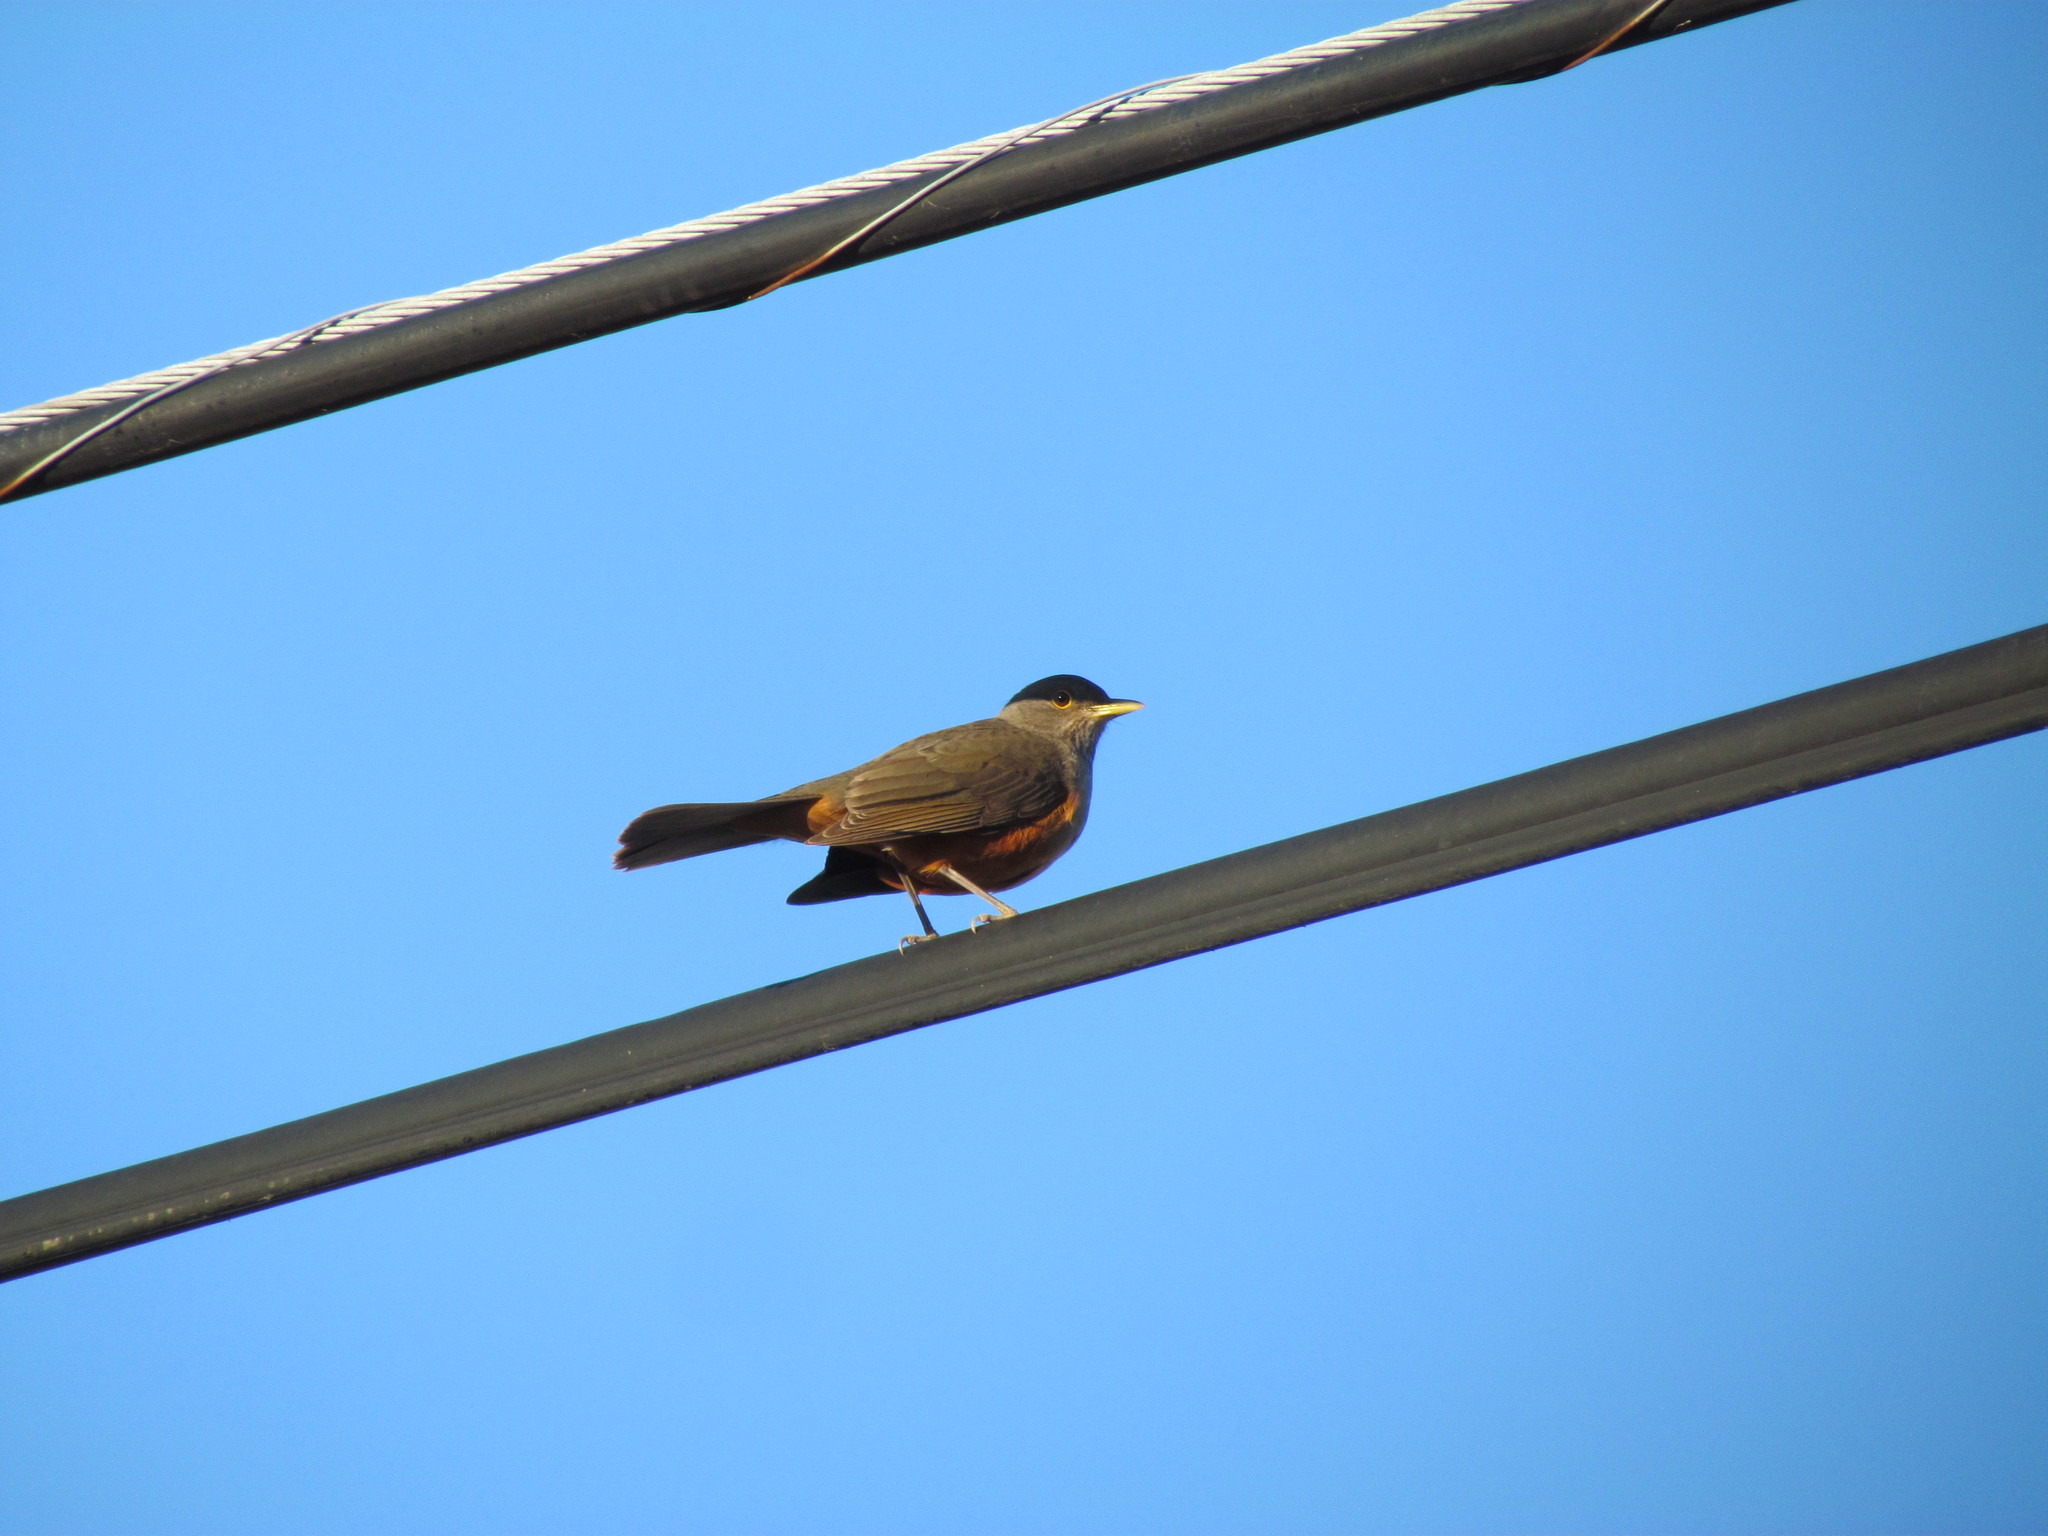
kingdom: Animalia
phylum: Chordata
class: Aves
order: Passeriformes
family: Turdidae
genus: Turdus
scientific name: Turdus rufiventris
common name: Rufous-bellied thrush
